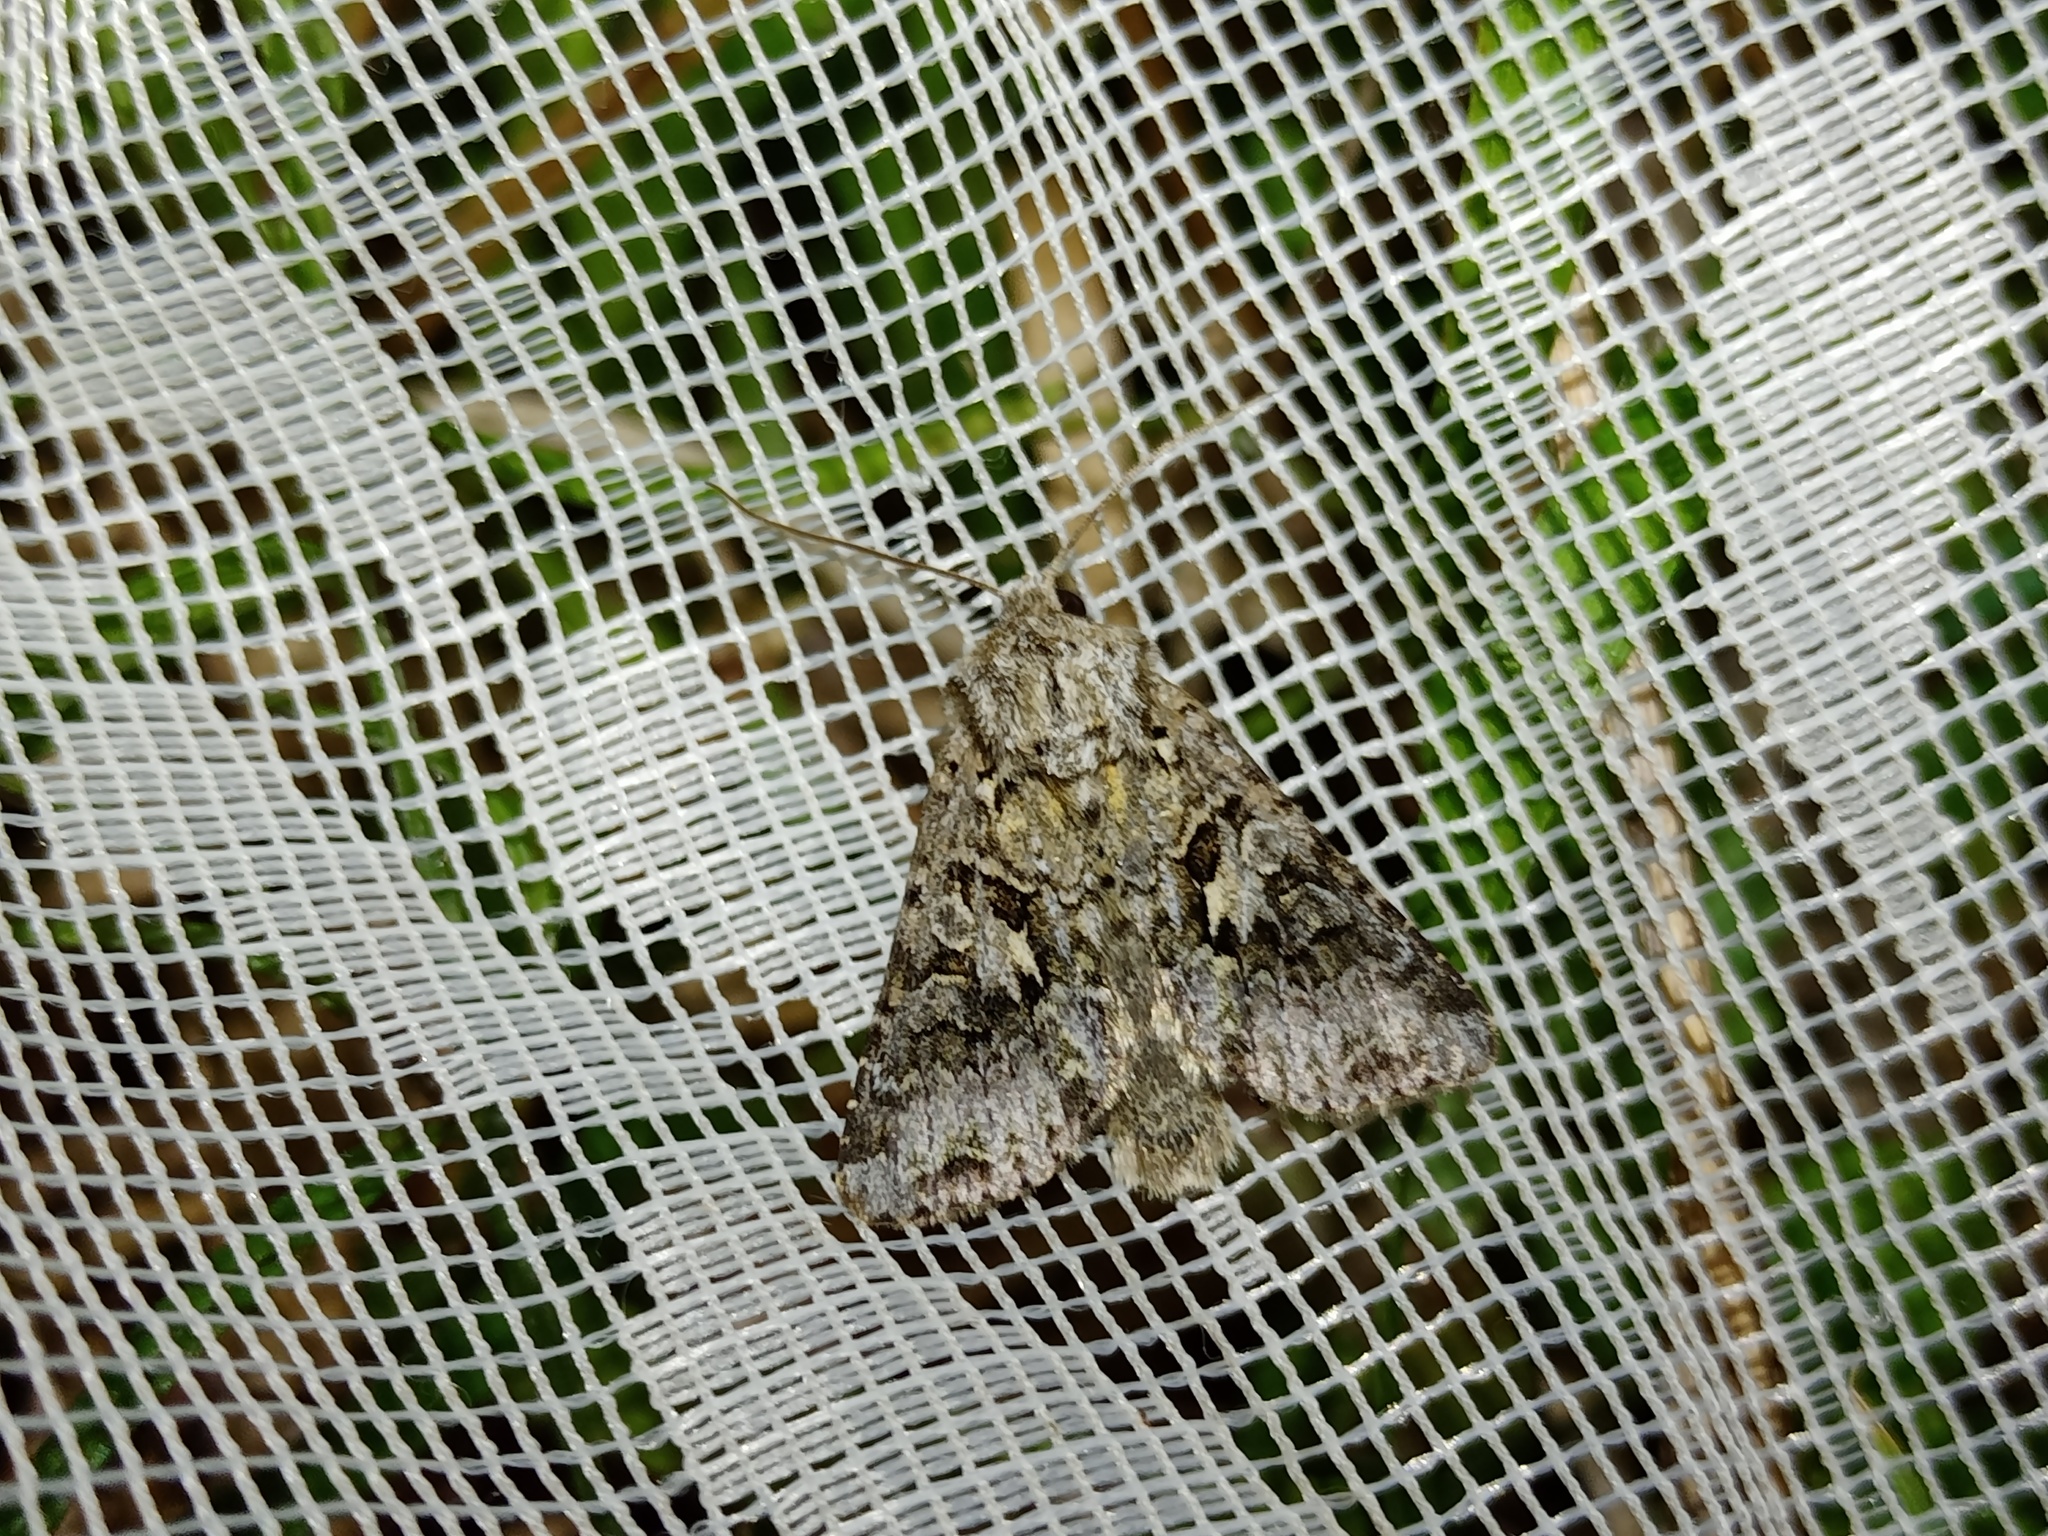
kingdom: Animalia
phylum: Arthropoda
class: Insecta
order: Lepidoptera
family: Noctuidae
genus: Hada
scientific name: Hada plebeja
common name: Shears
